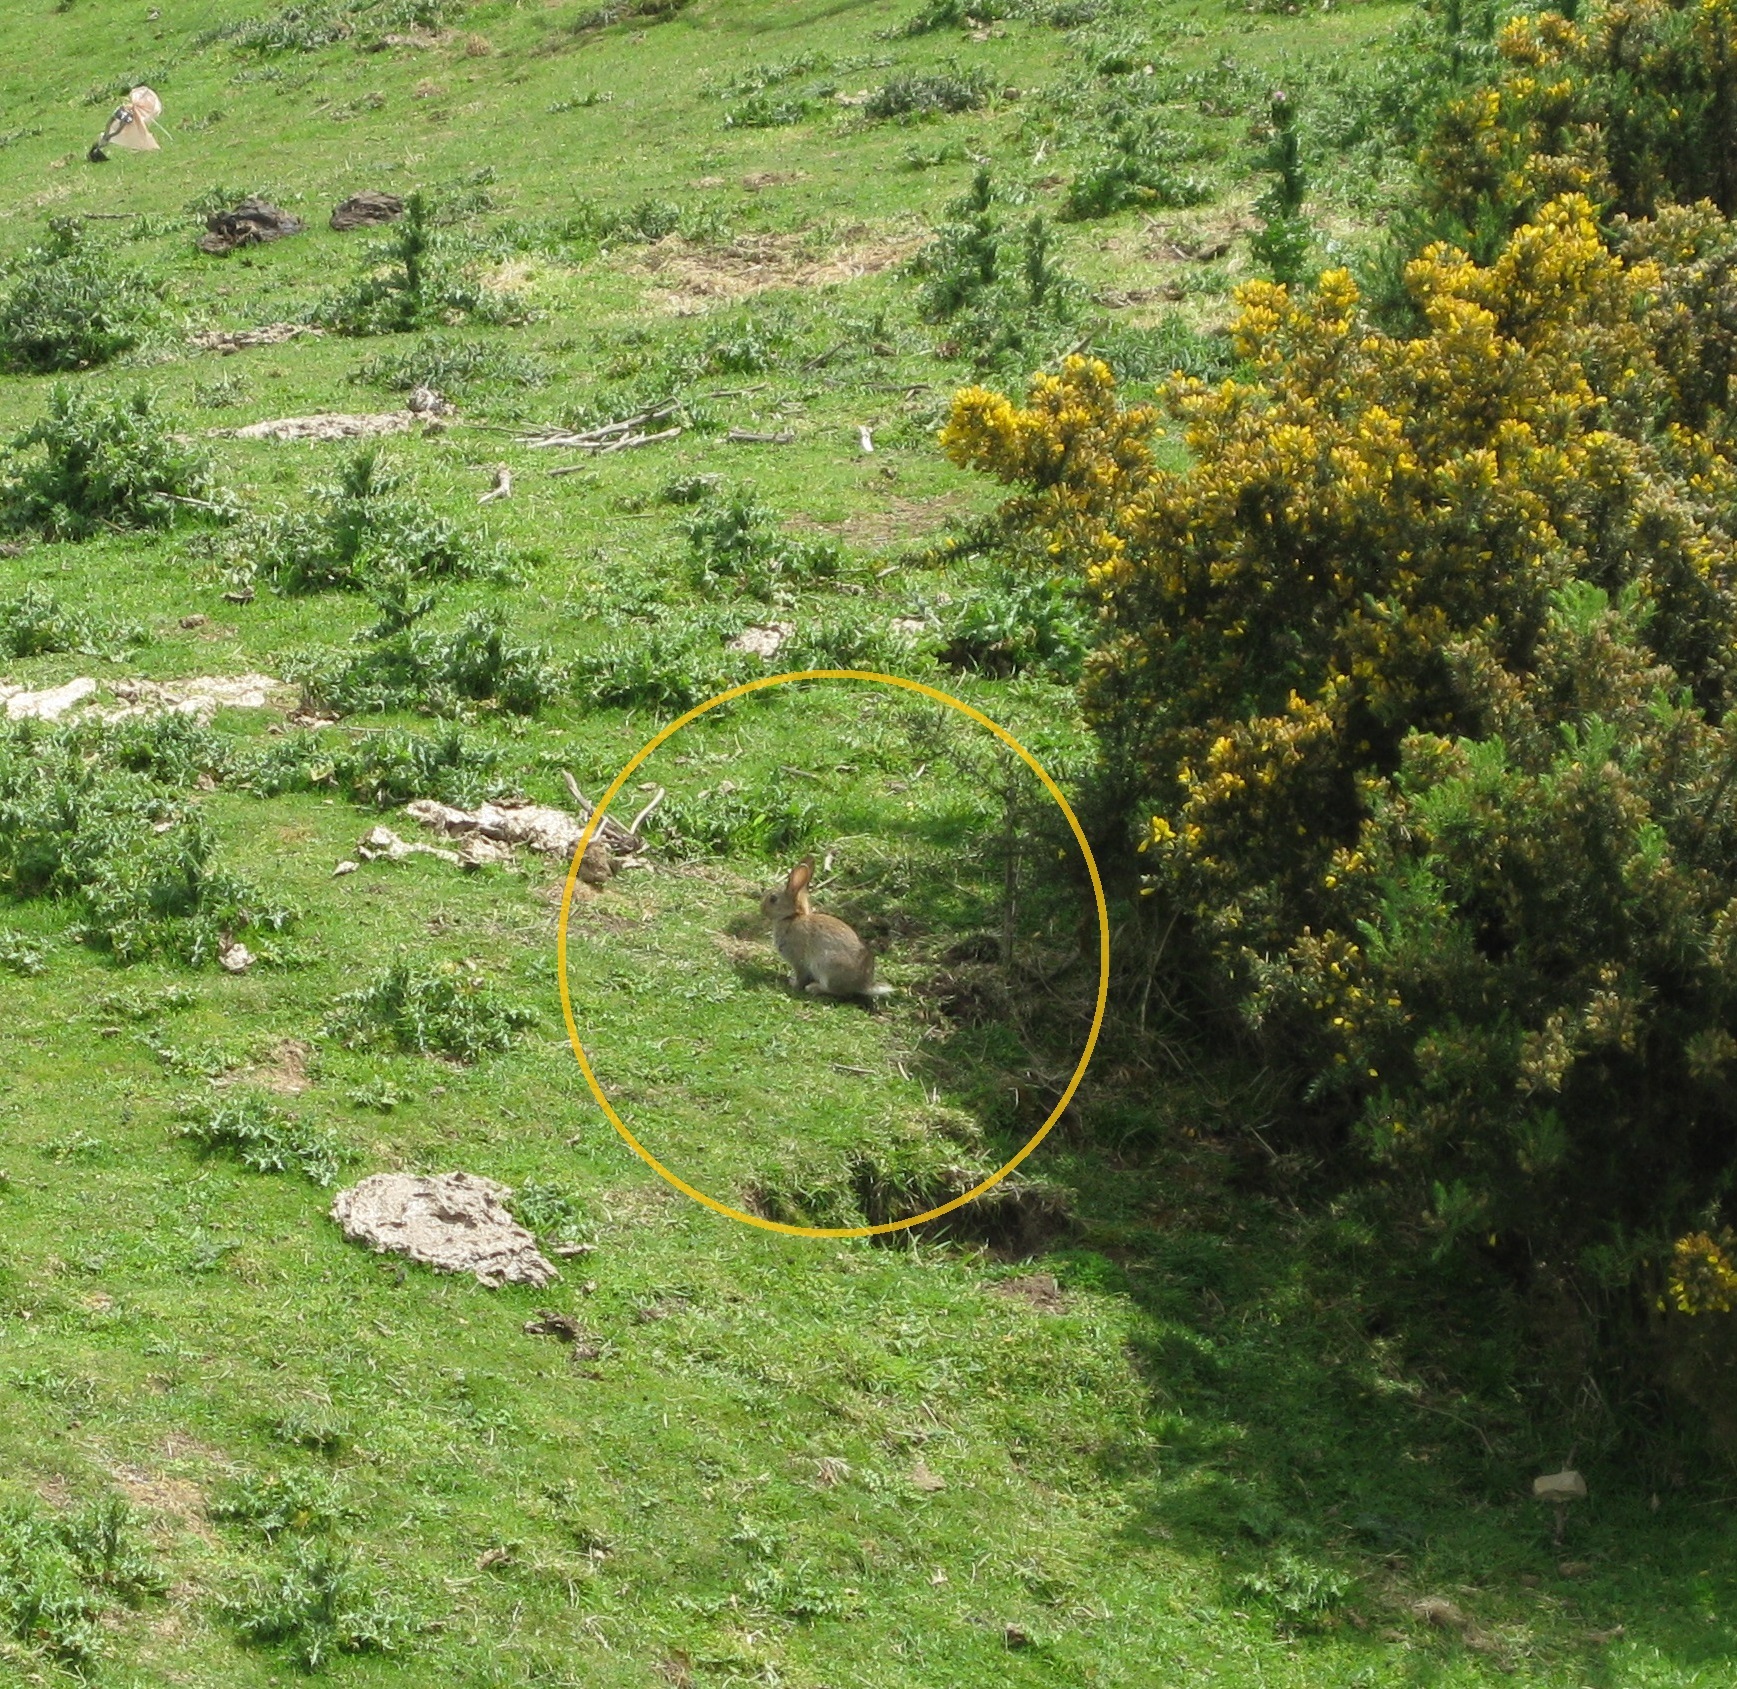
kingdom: Animalia
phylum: Chordata
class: Mammalia
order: Lagomorpha
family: Leporidae
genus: Oryctolagus
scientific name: Oryctolagus cuniculus
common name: European rabbit
